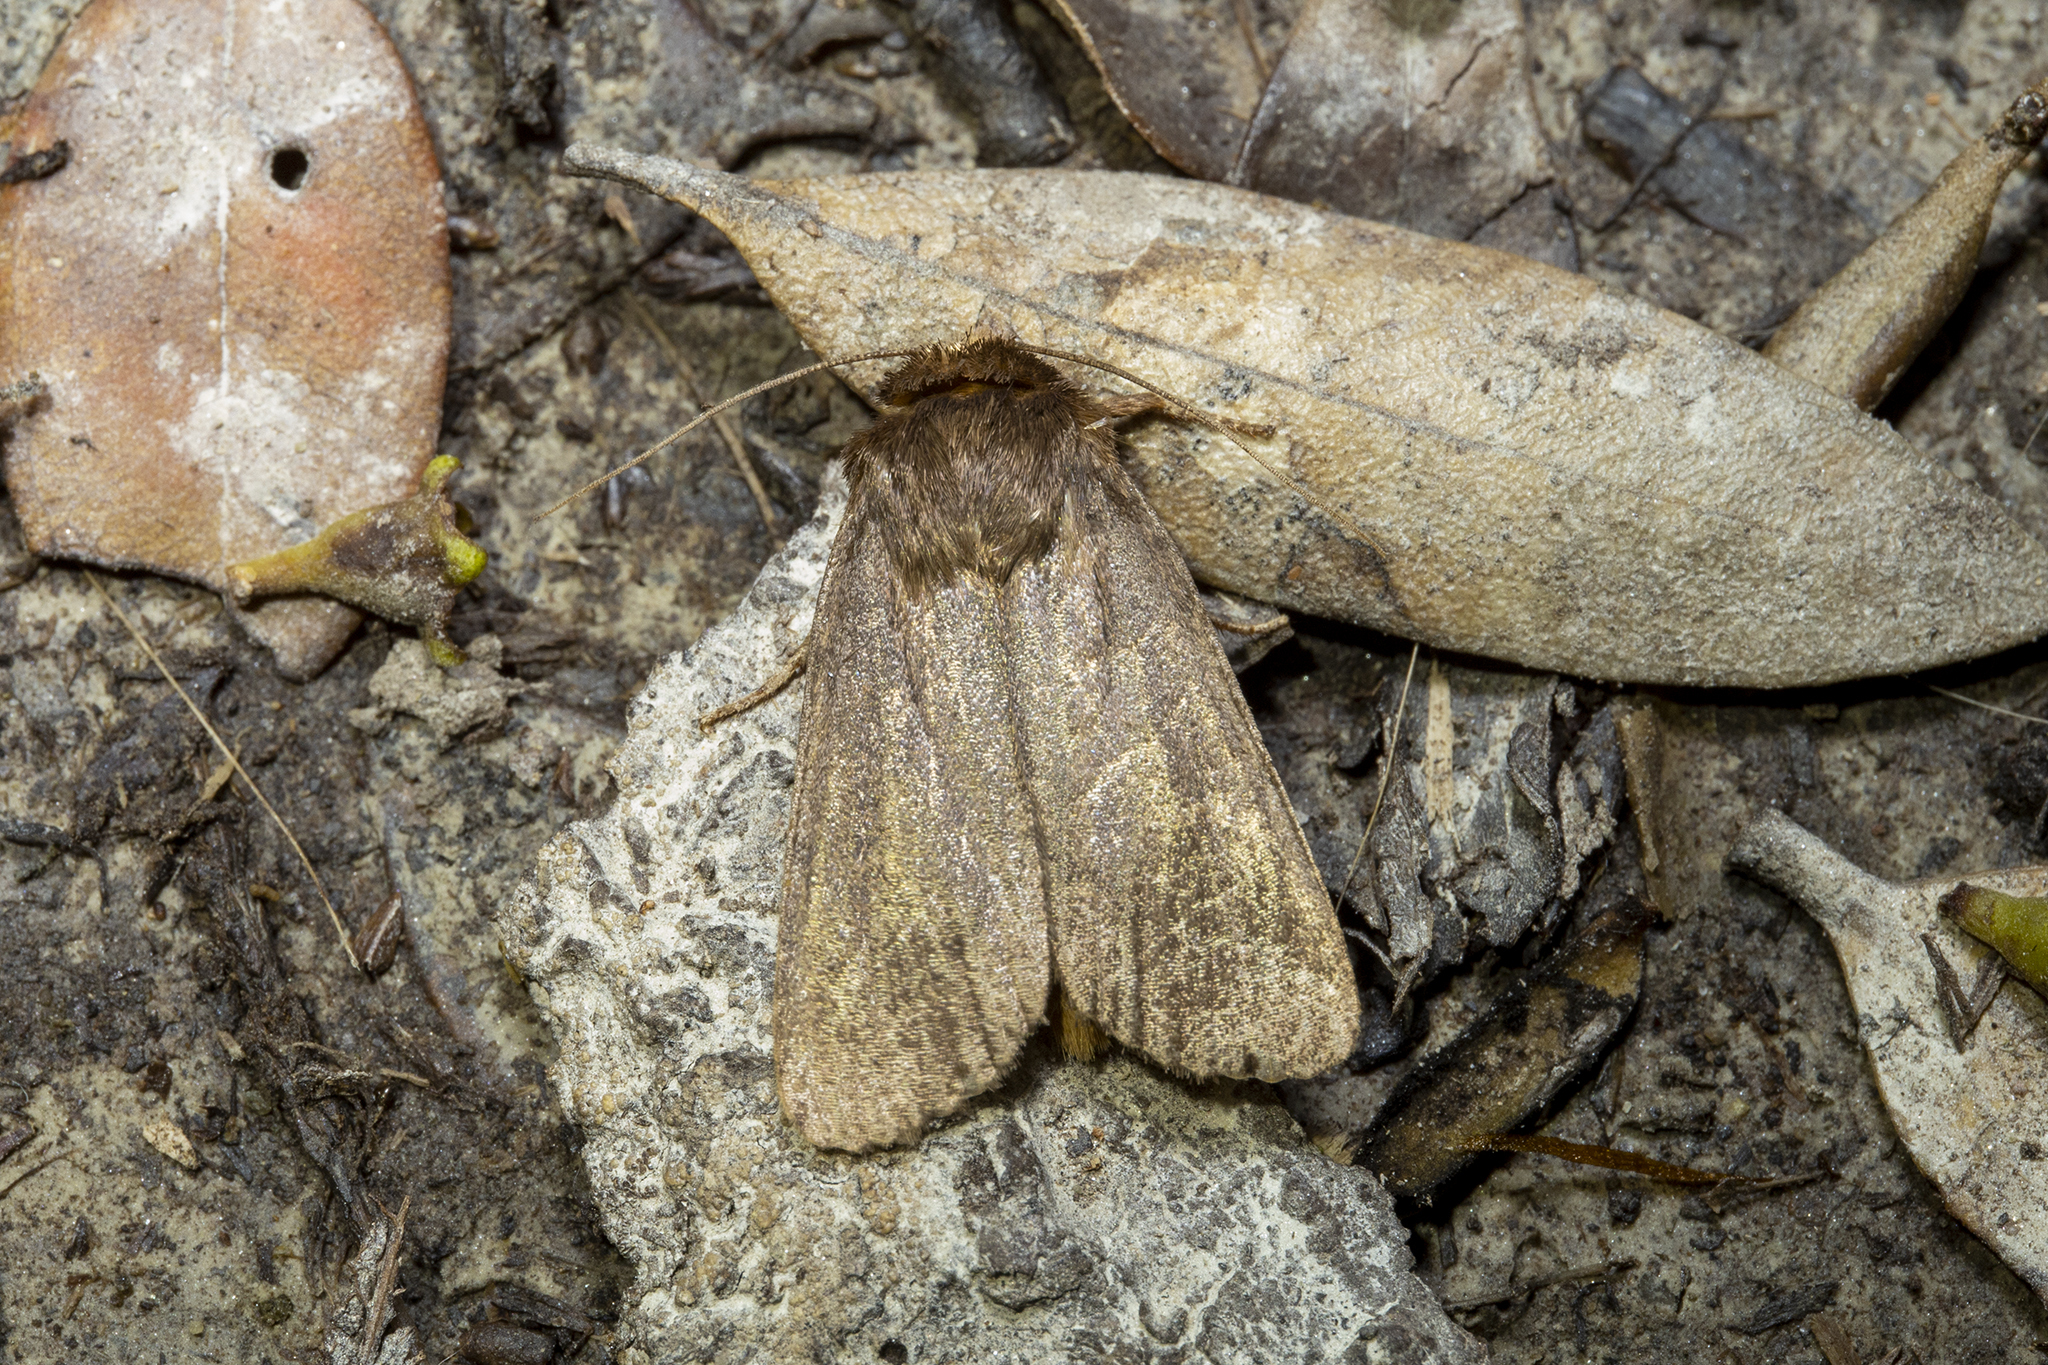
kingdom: Animalia
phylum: Arthropoda
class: Insecta
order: Lepidoptera
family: Noctuidae
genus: Bityla
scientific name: Bityla defigurata
